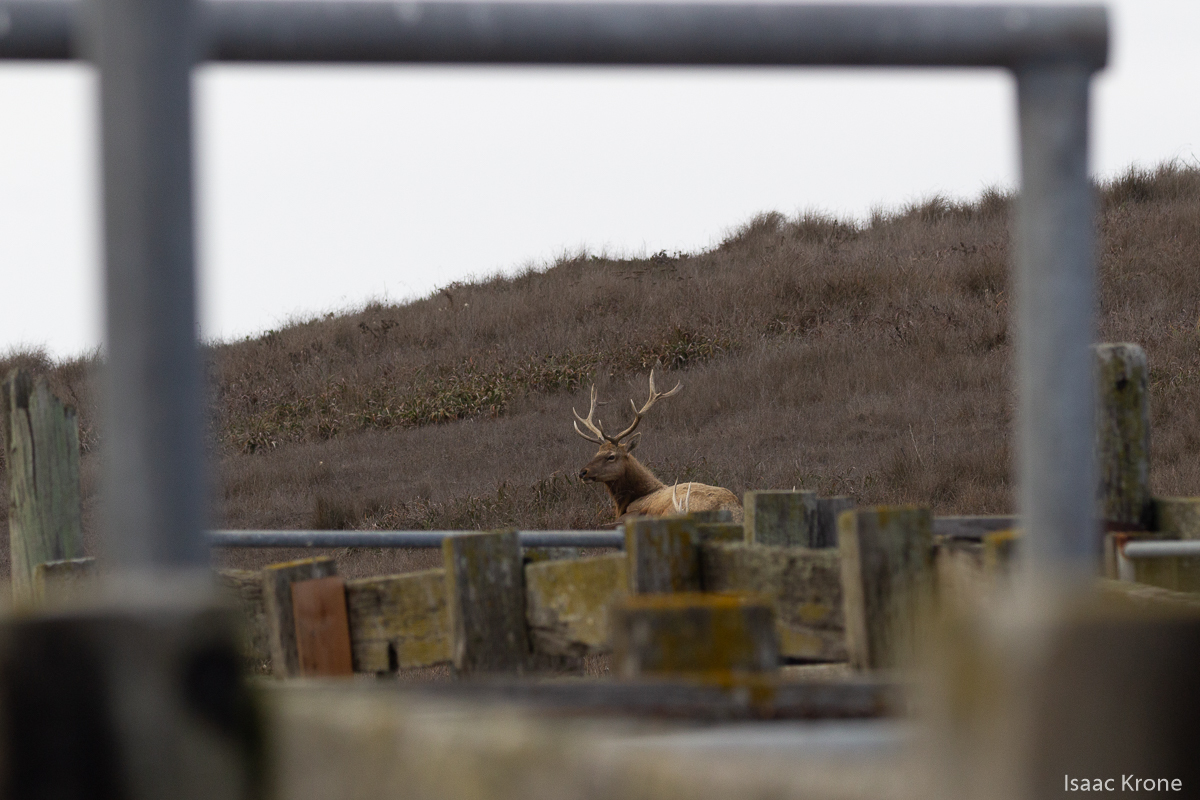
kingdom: Animalia
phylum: Chordata
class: Mammalia
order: Artiodactyla
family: Cervidae
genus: Cervus
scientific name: Cervus elaphus
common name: Red deer
